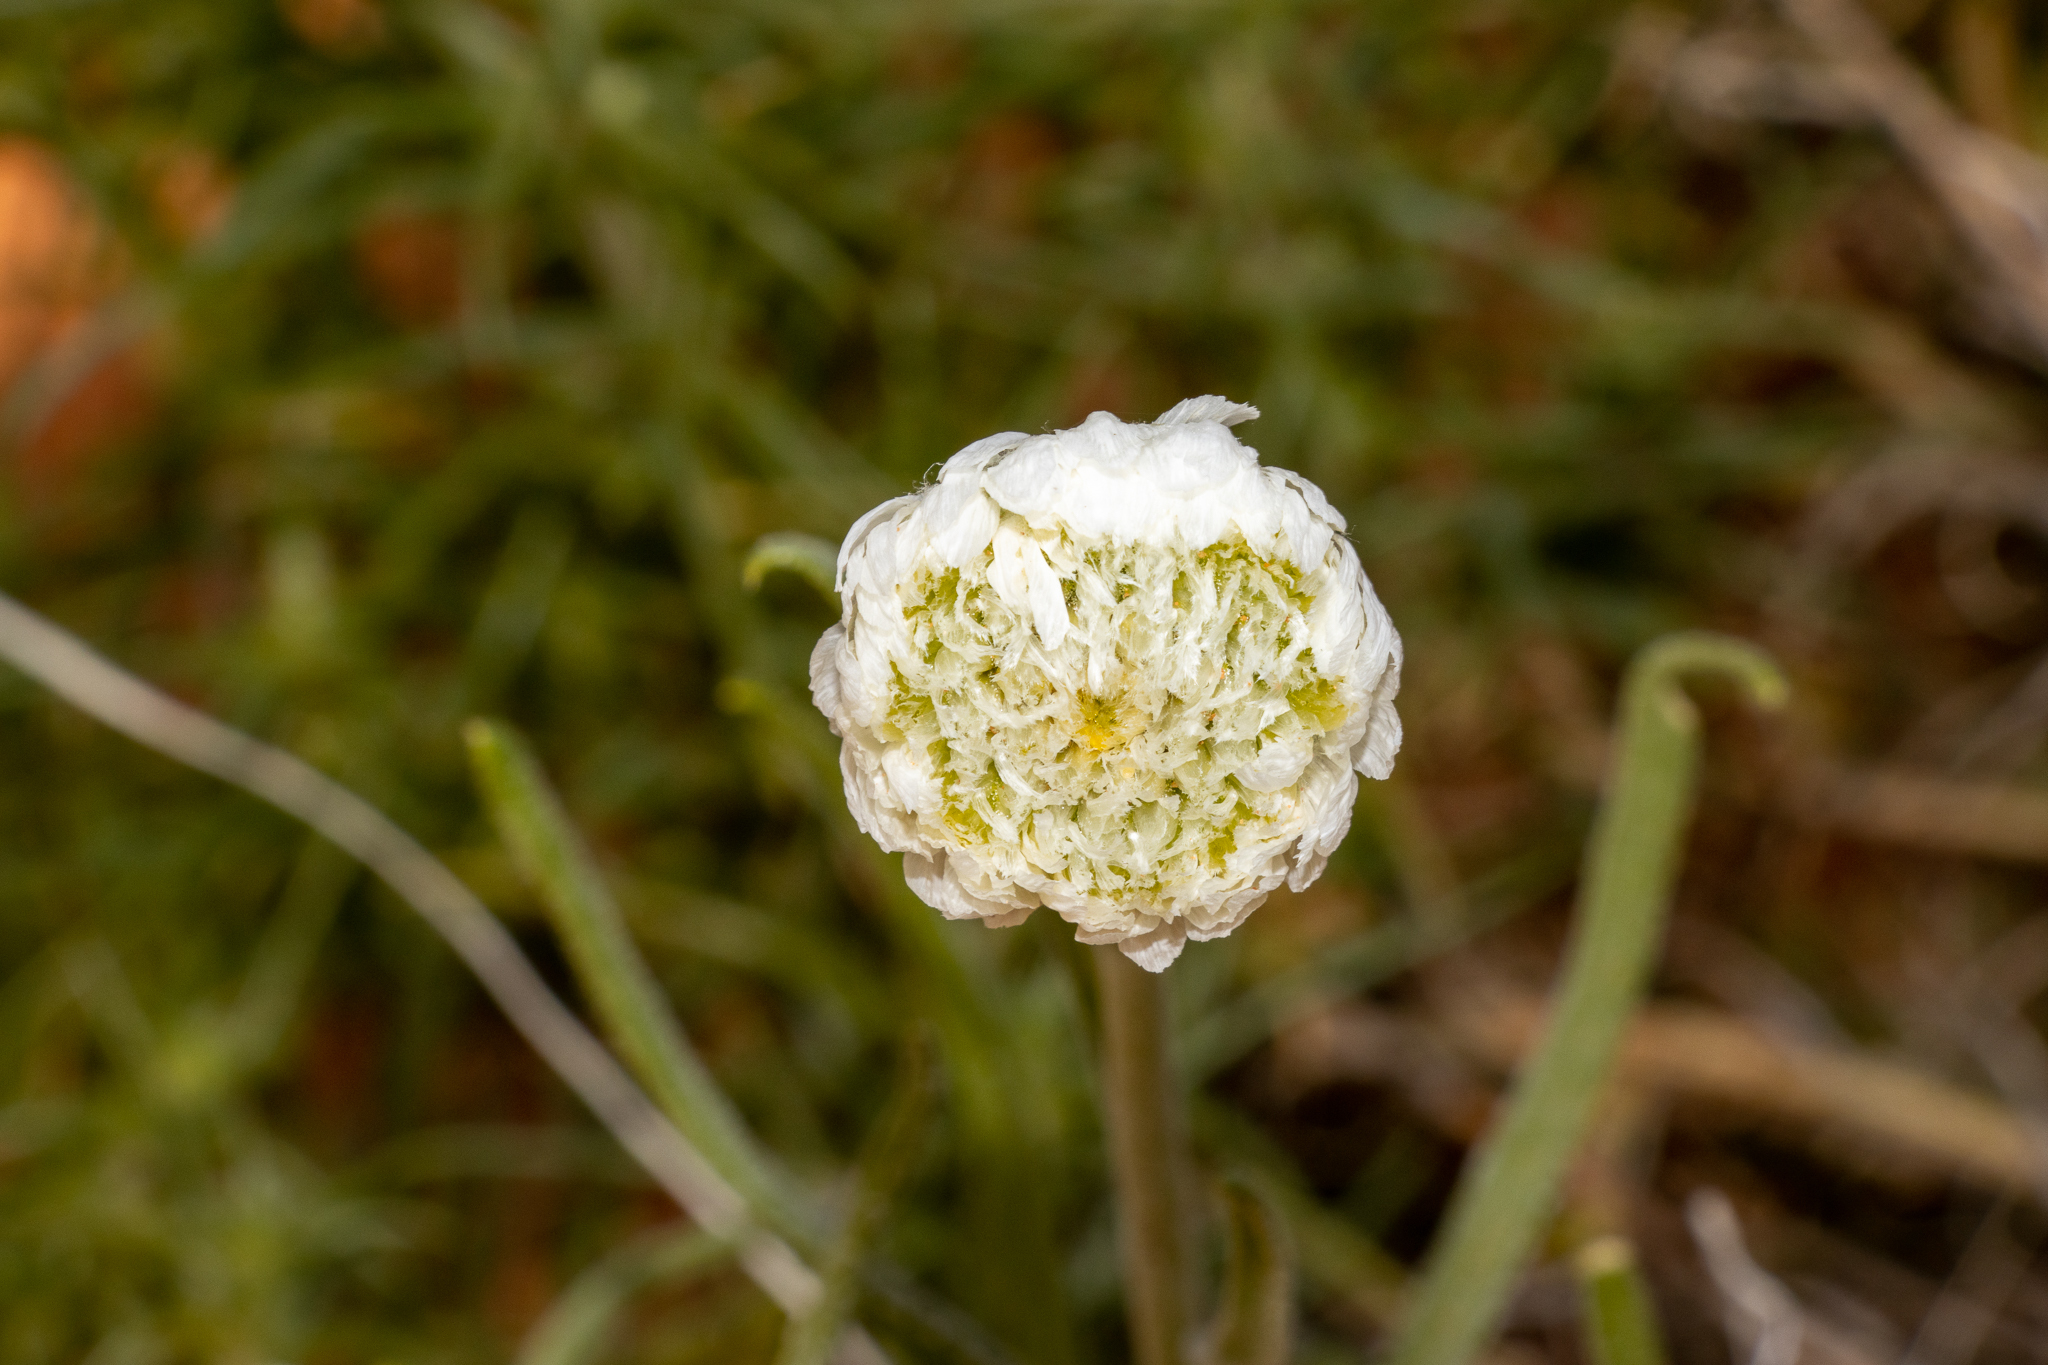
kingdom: Plantae
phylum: Tracheophyta
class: Magnoliopsida
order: Asterales
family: Asteraceae
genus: Polycalymma
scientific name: Polycalymma stuartii
